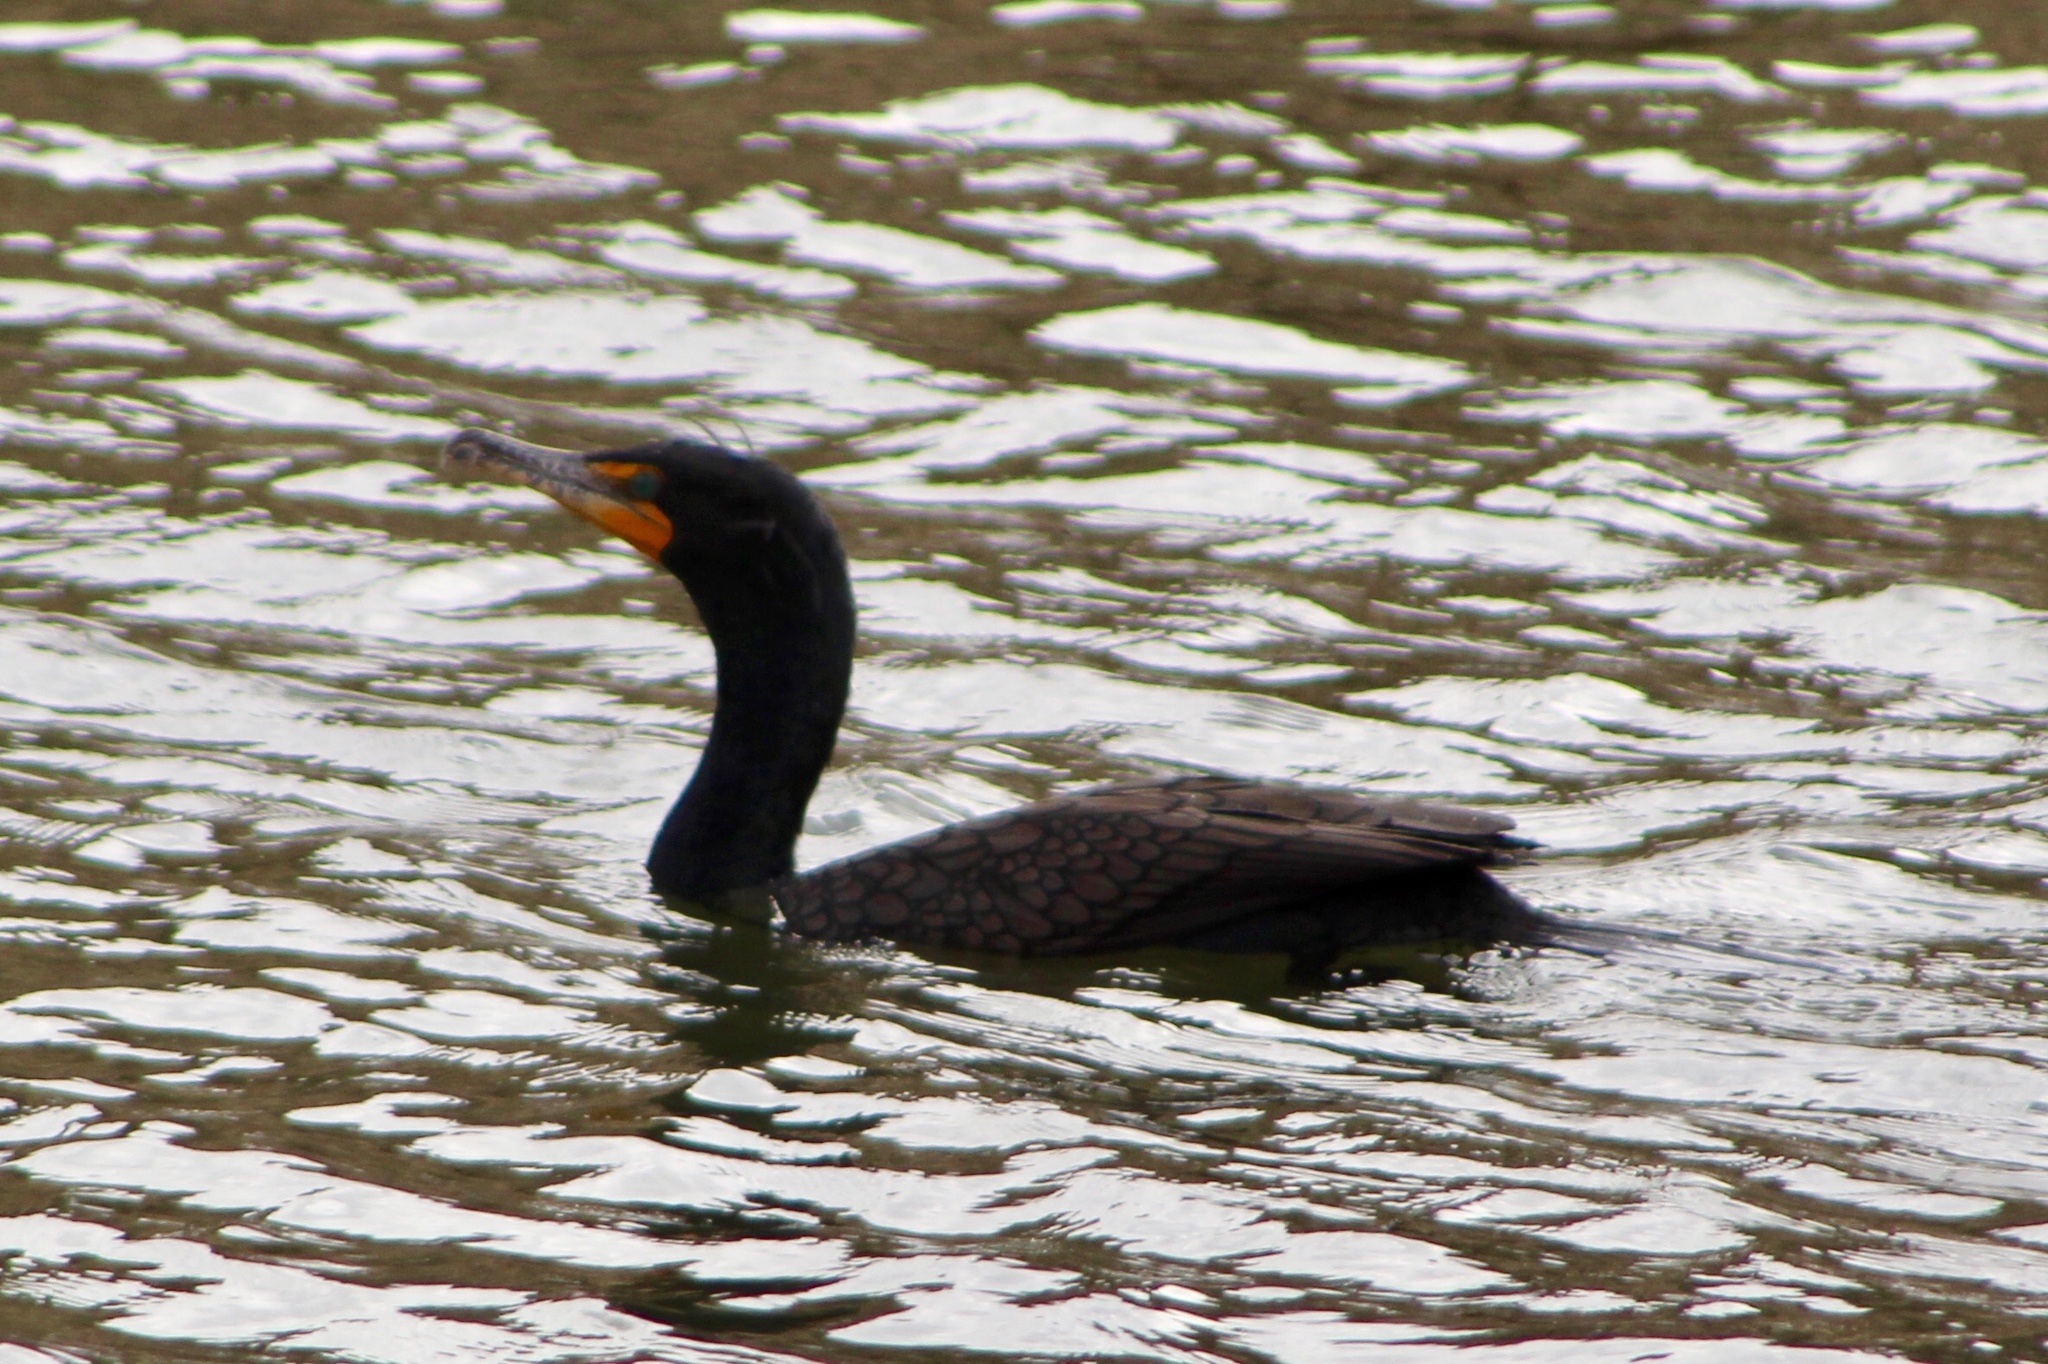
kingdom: Animalia
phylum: Chordata
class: Aves
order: Suliformes
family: Phalacrocoracidae
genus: Phalacrocorax
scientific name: Phalacrocorax auritus
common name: Double-crested cormorant
